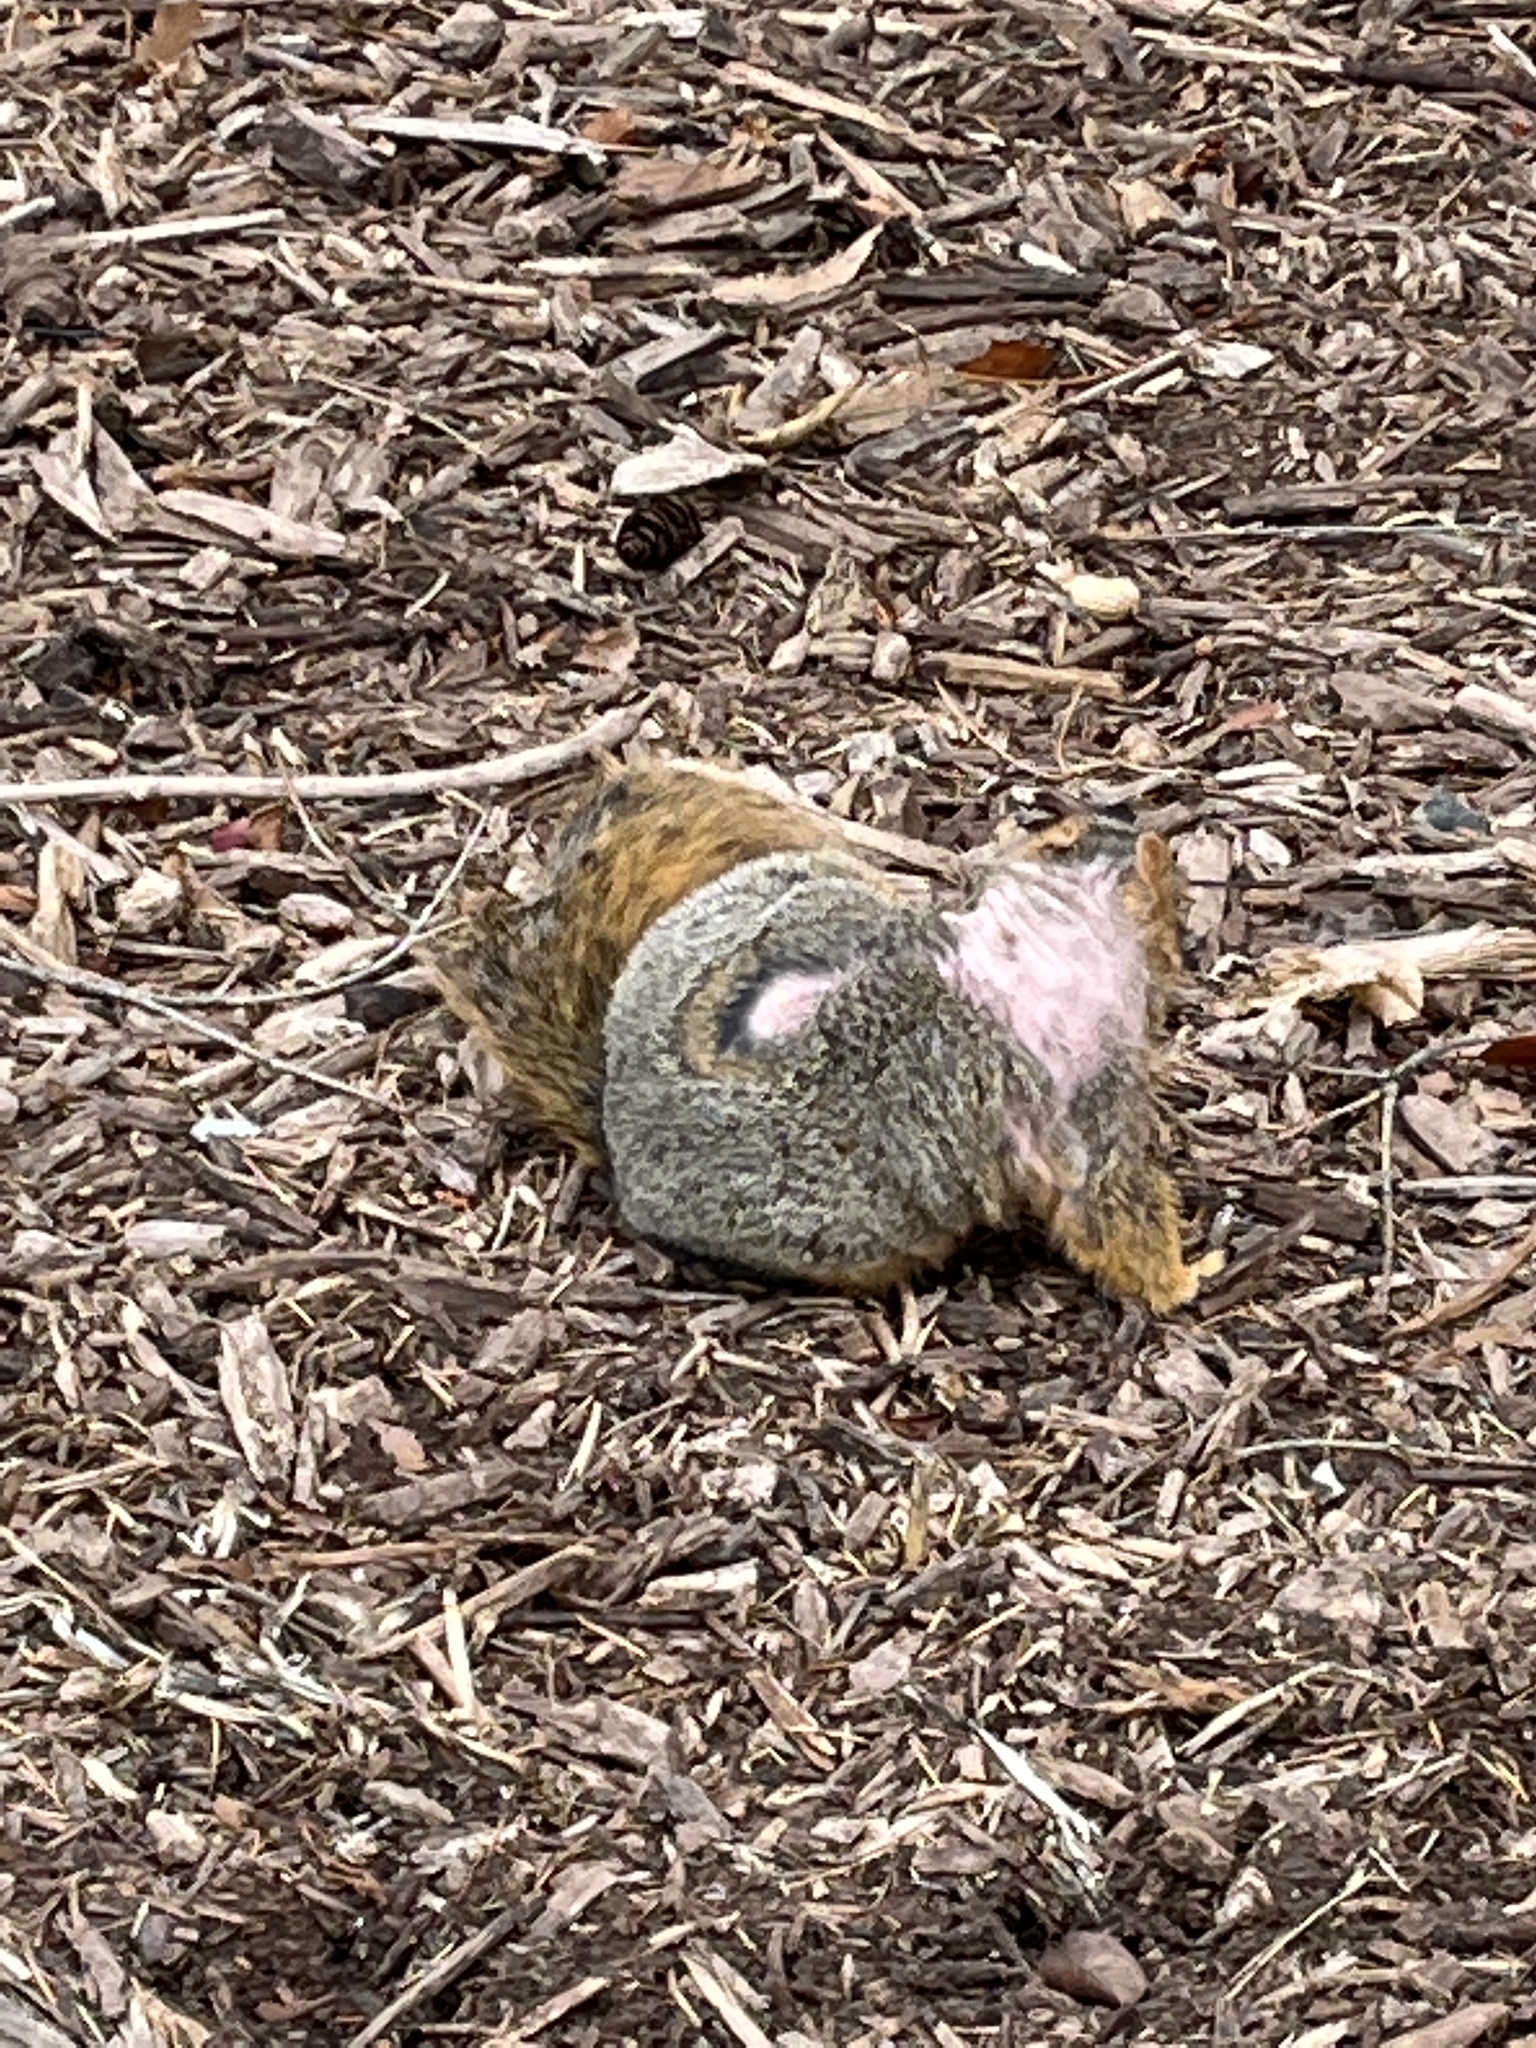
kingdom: Animalia
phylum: Chordata
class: Mammalia
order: Rodentia
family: Sciuridae
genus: Sciurus
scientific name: Sciurus niger
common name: Fox squirrel
